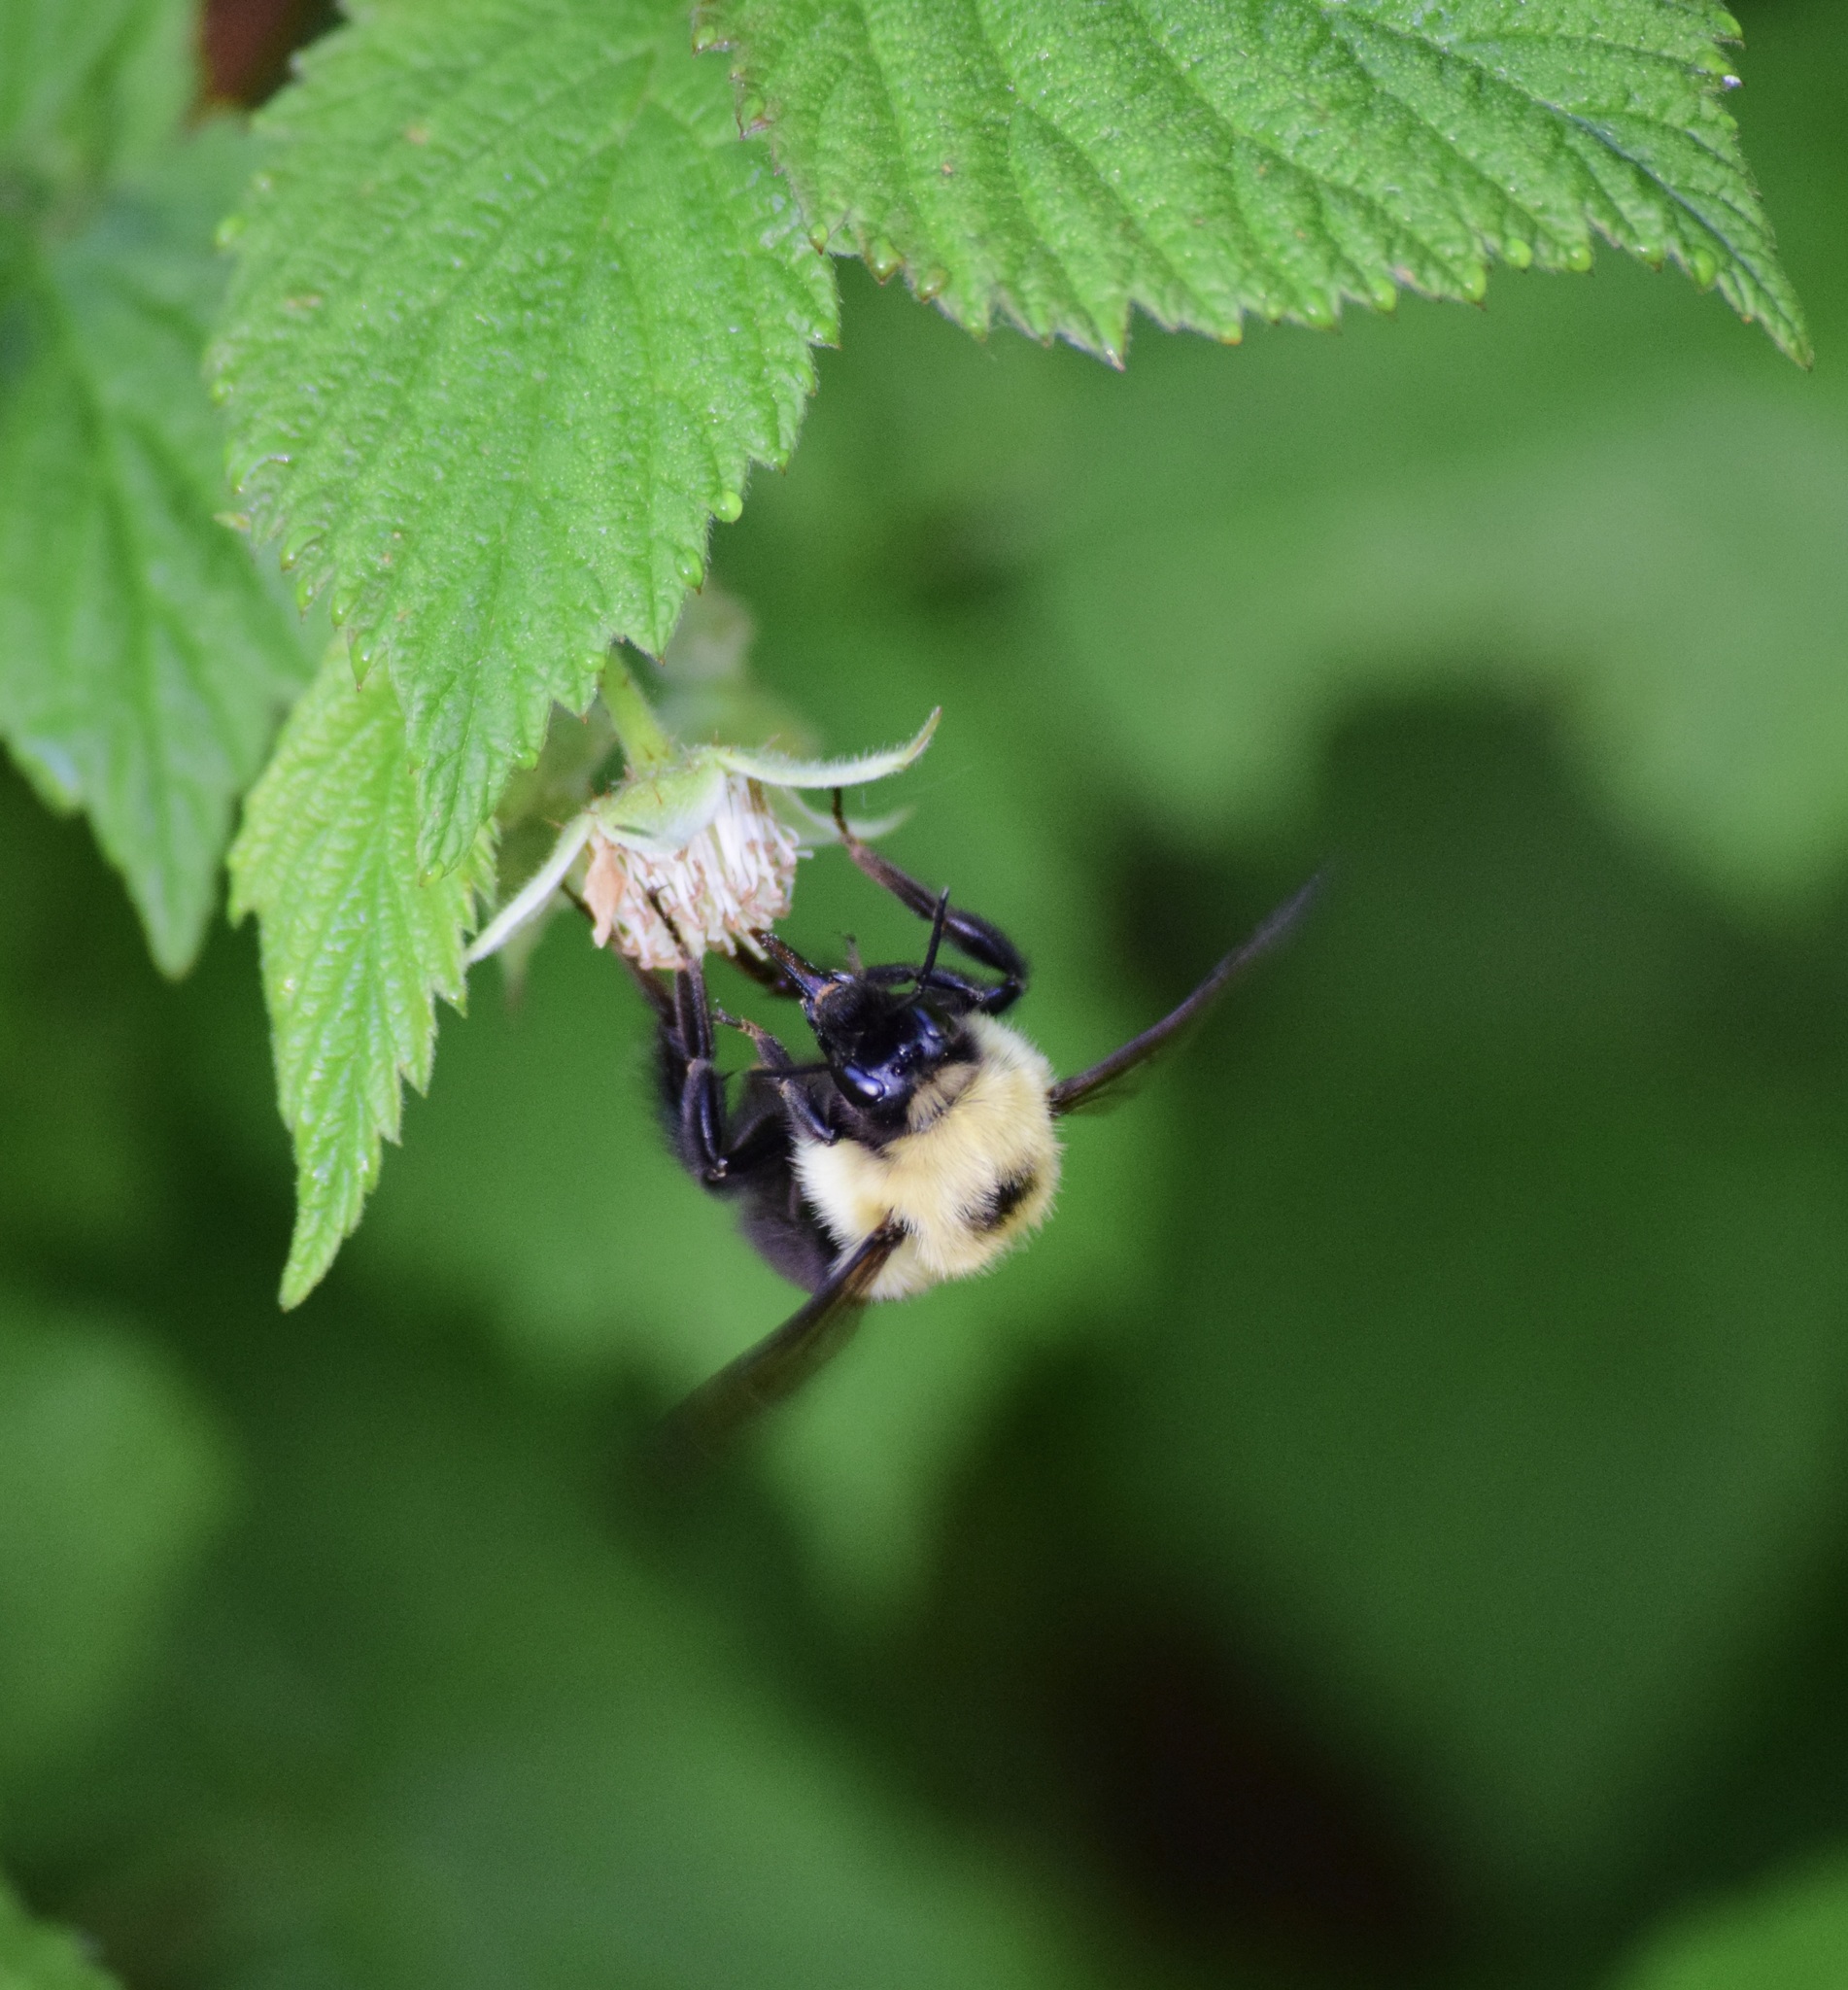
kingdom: Animalia
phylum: Arthropoda
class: Insecta
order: Hymenoptera
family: Apidae
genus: Bombus
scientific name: Bombus bimaculatus
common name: Two-spotted bumble bee
